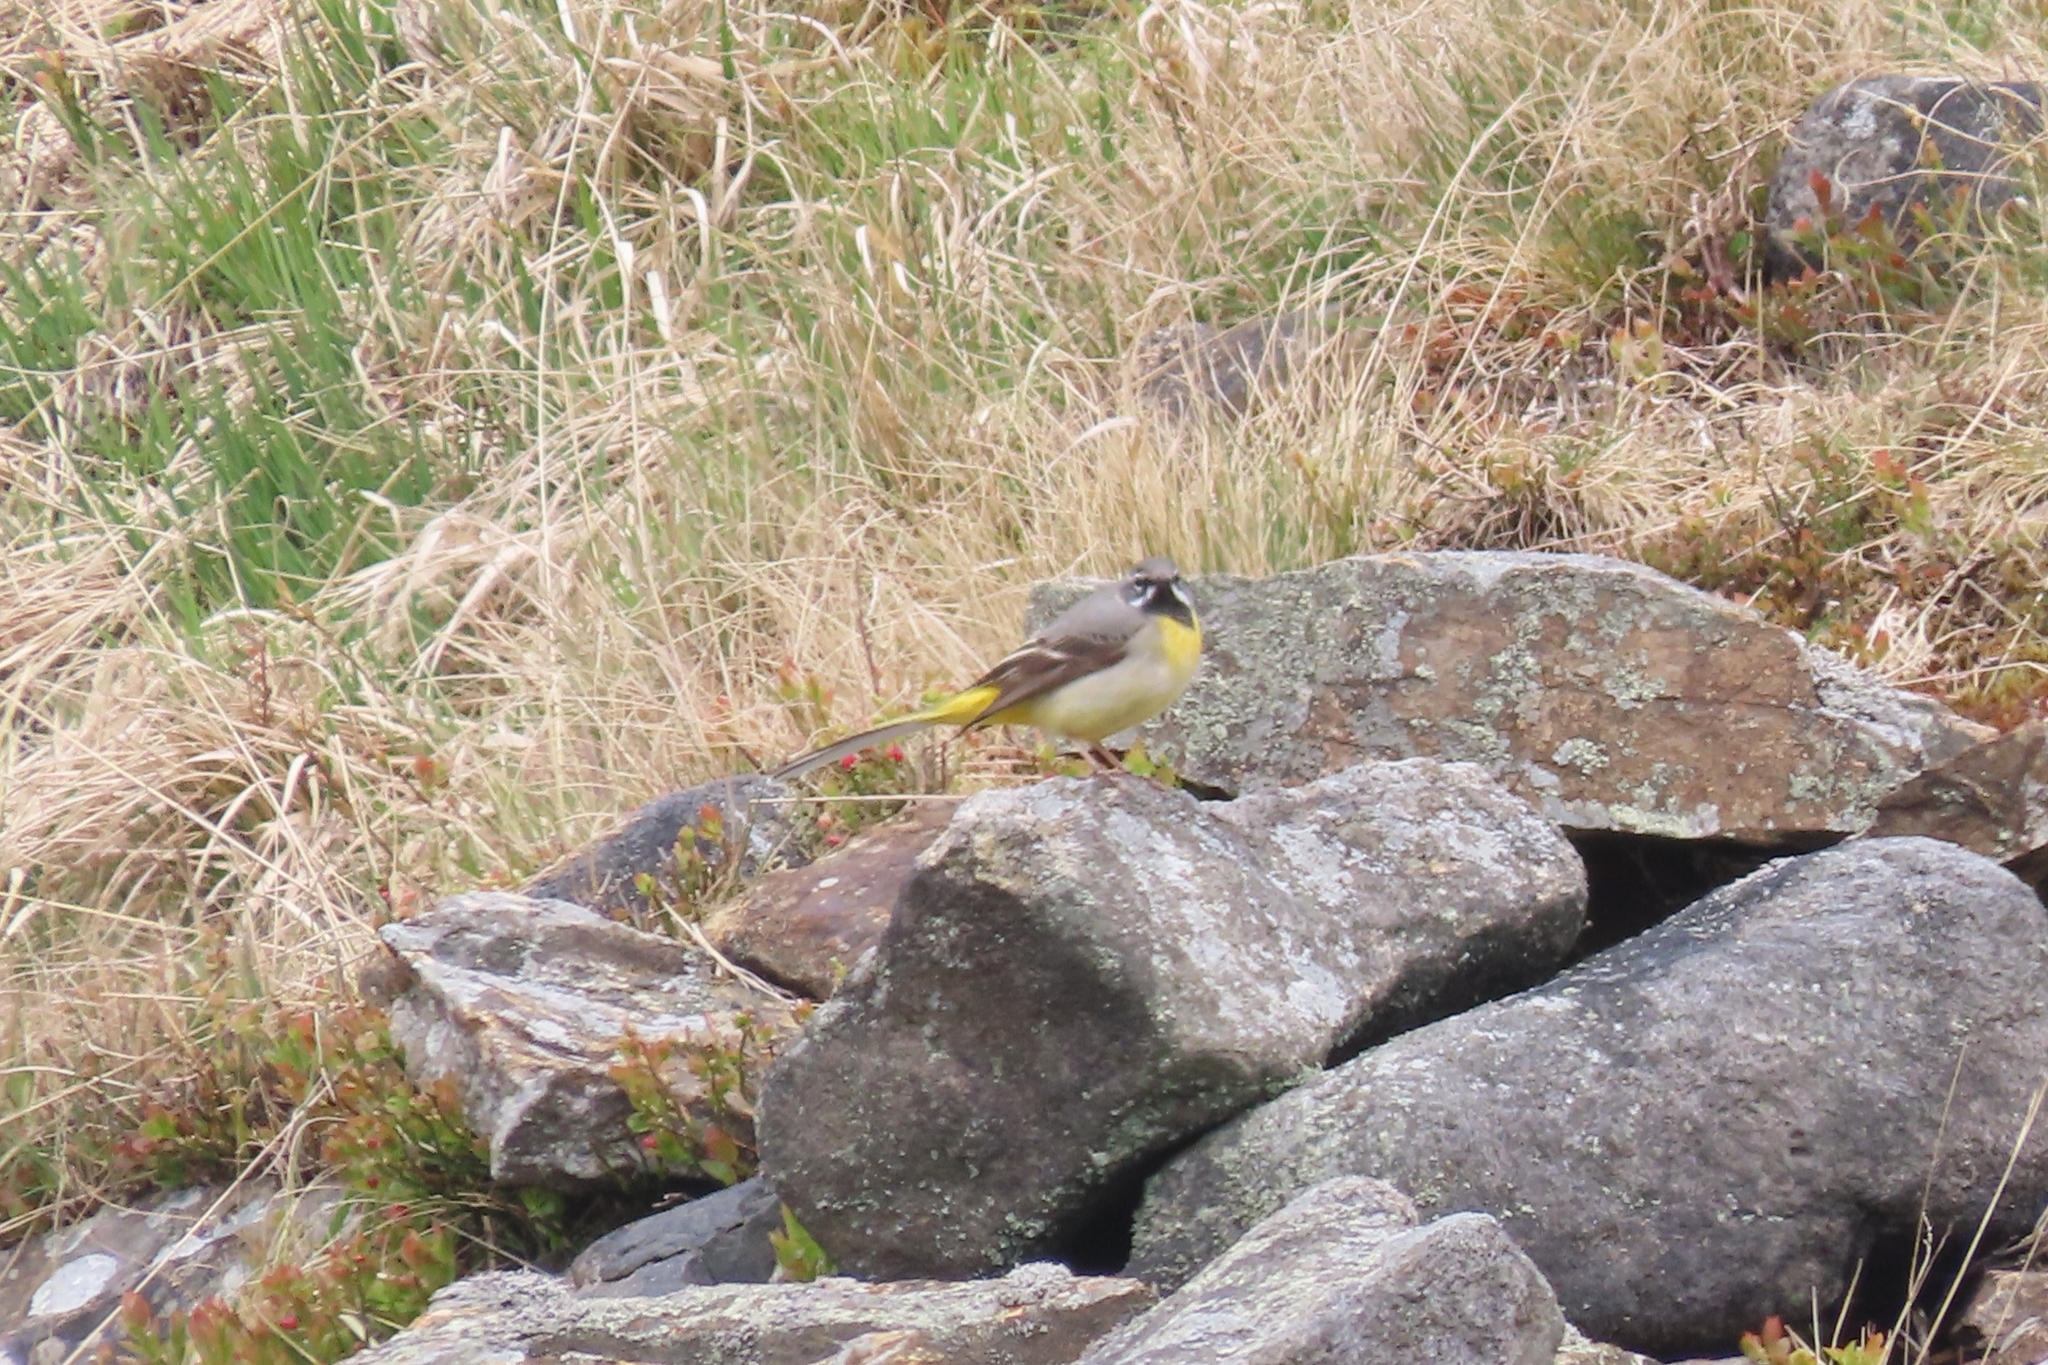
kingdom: Animalia
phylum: Chordata
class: Aves
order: Passeriformes
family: Motacillidae
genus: Motacilla
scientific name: Motacilla cinerea
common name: Grey wagtail
